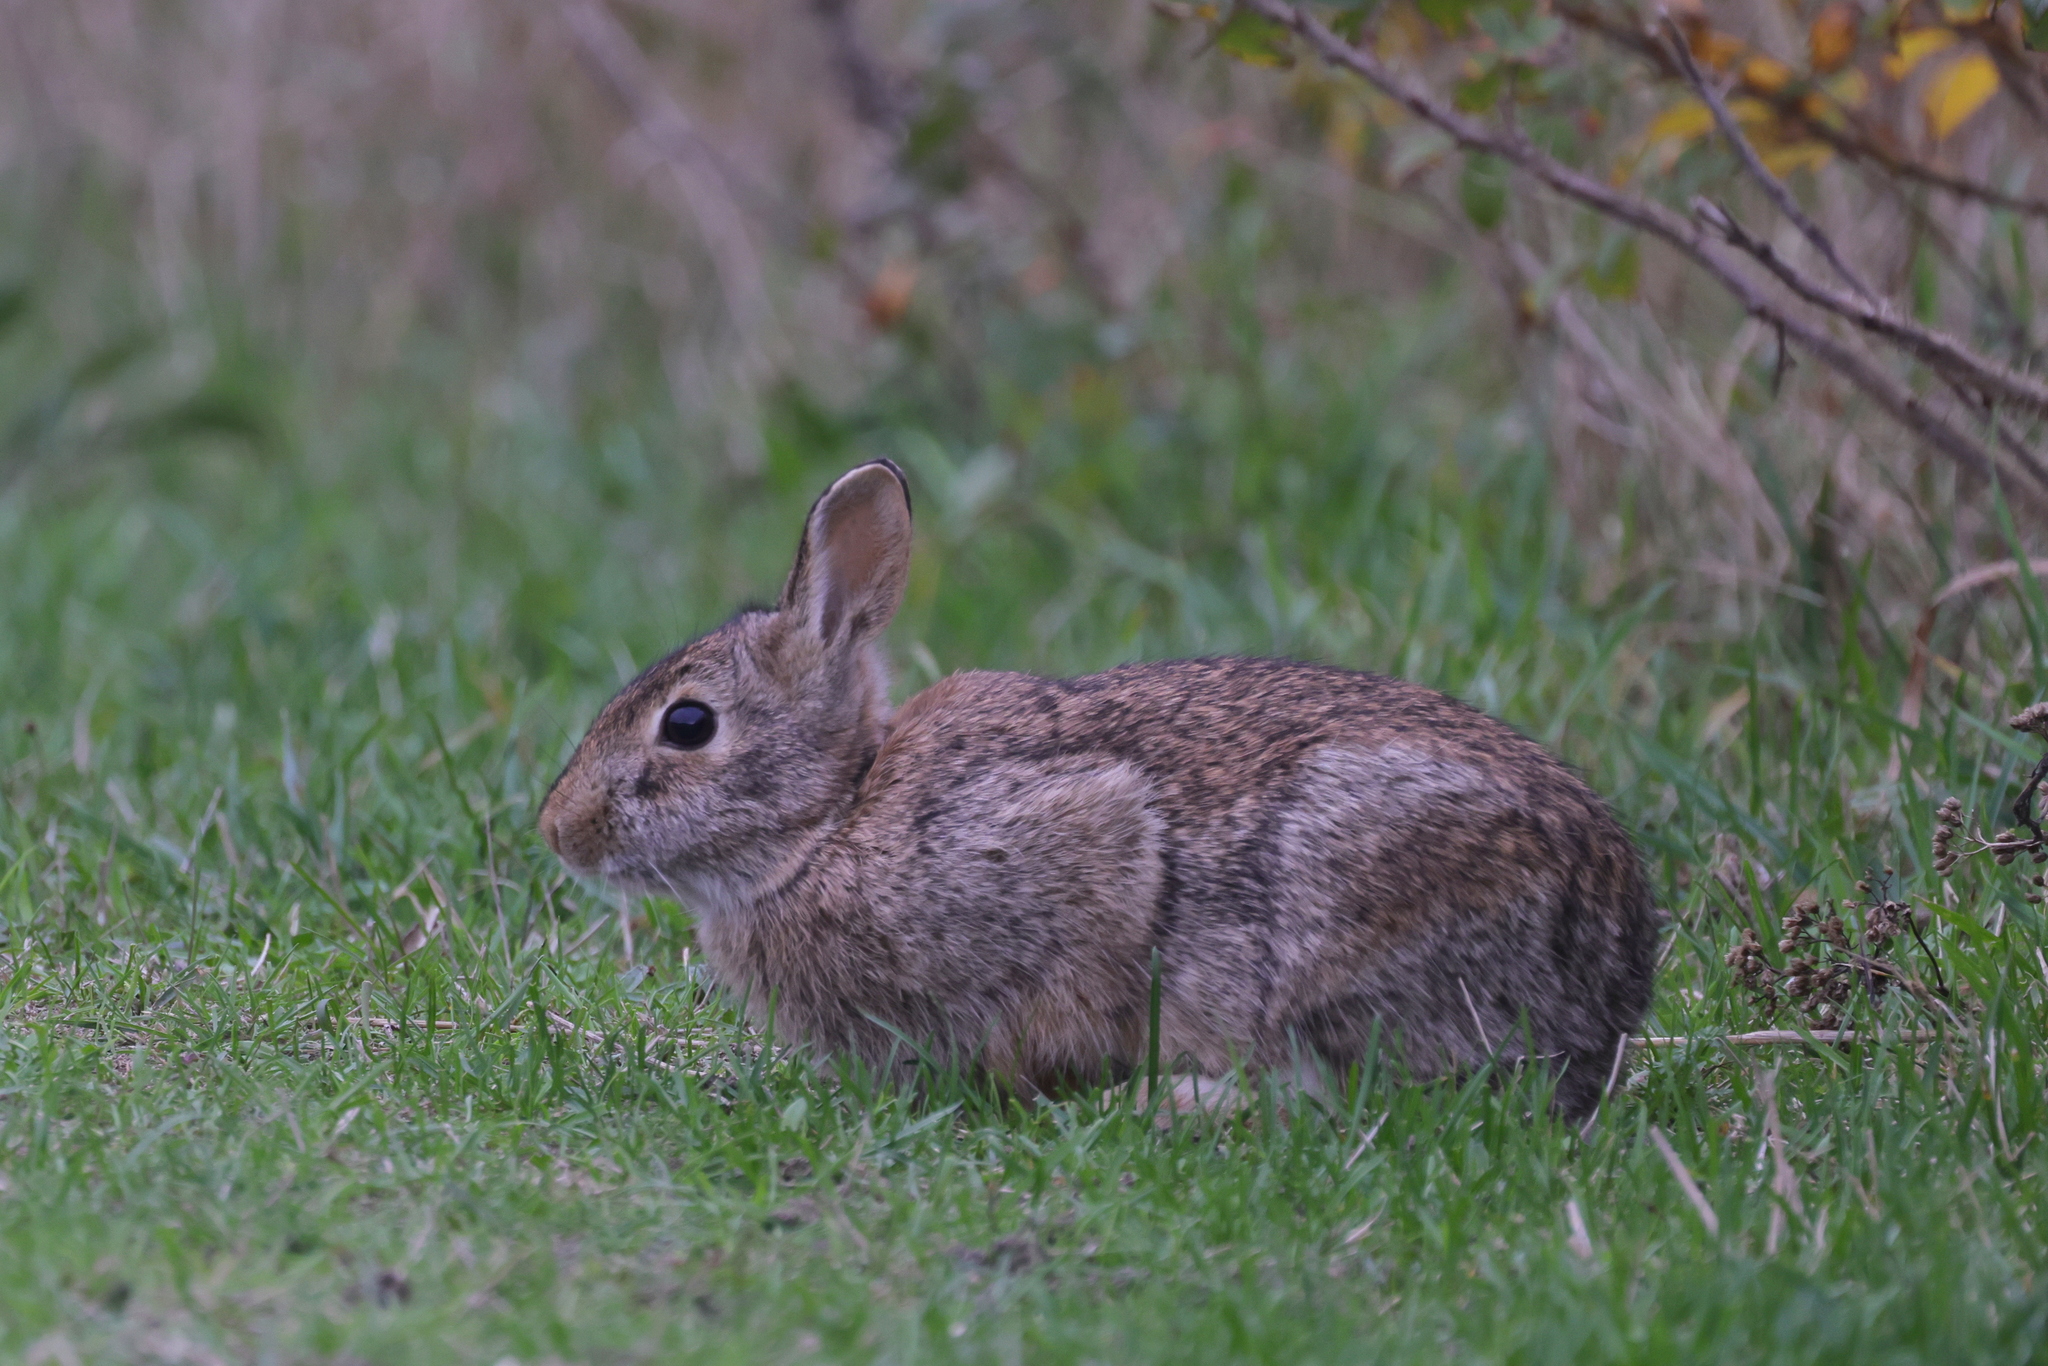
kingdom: Animalia
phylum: Chordata
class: Mammalia
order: Lagomorpha
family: Leporidae
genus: Sylvilagus
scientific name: Sylvilagus floridanus
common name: Eastern cottontail
